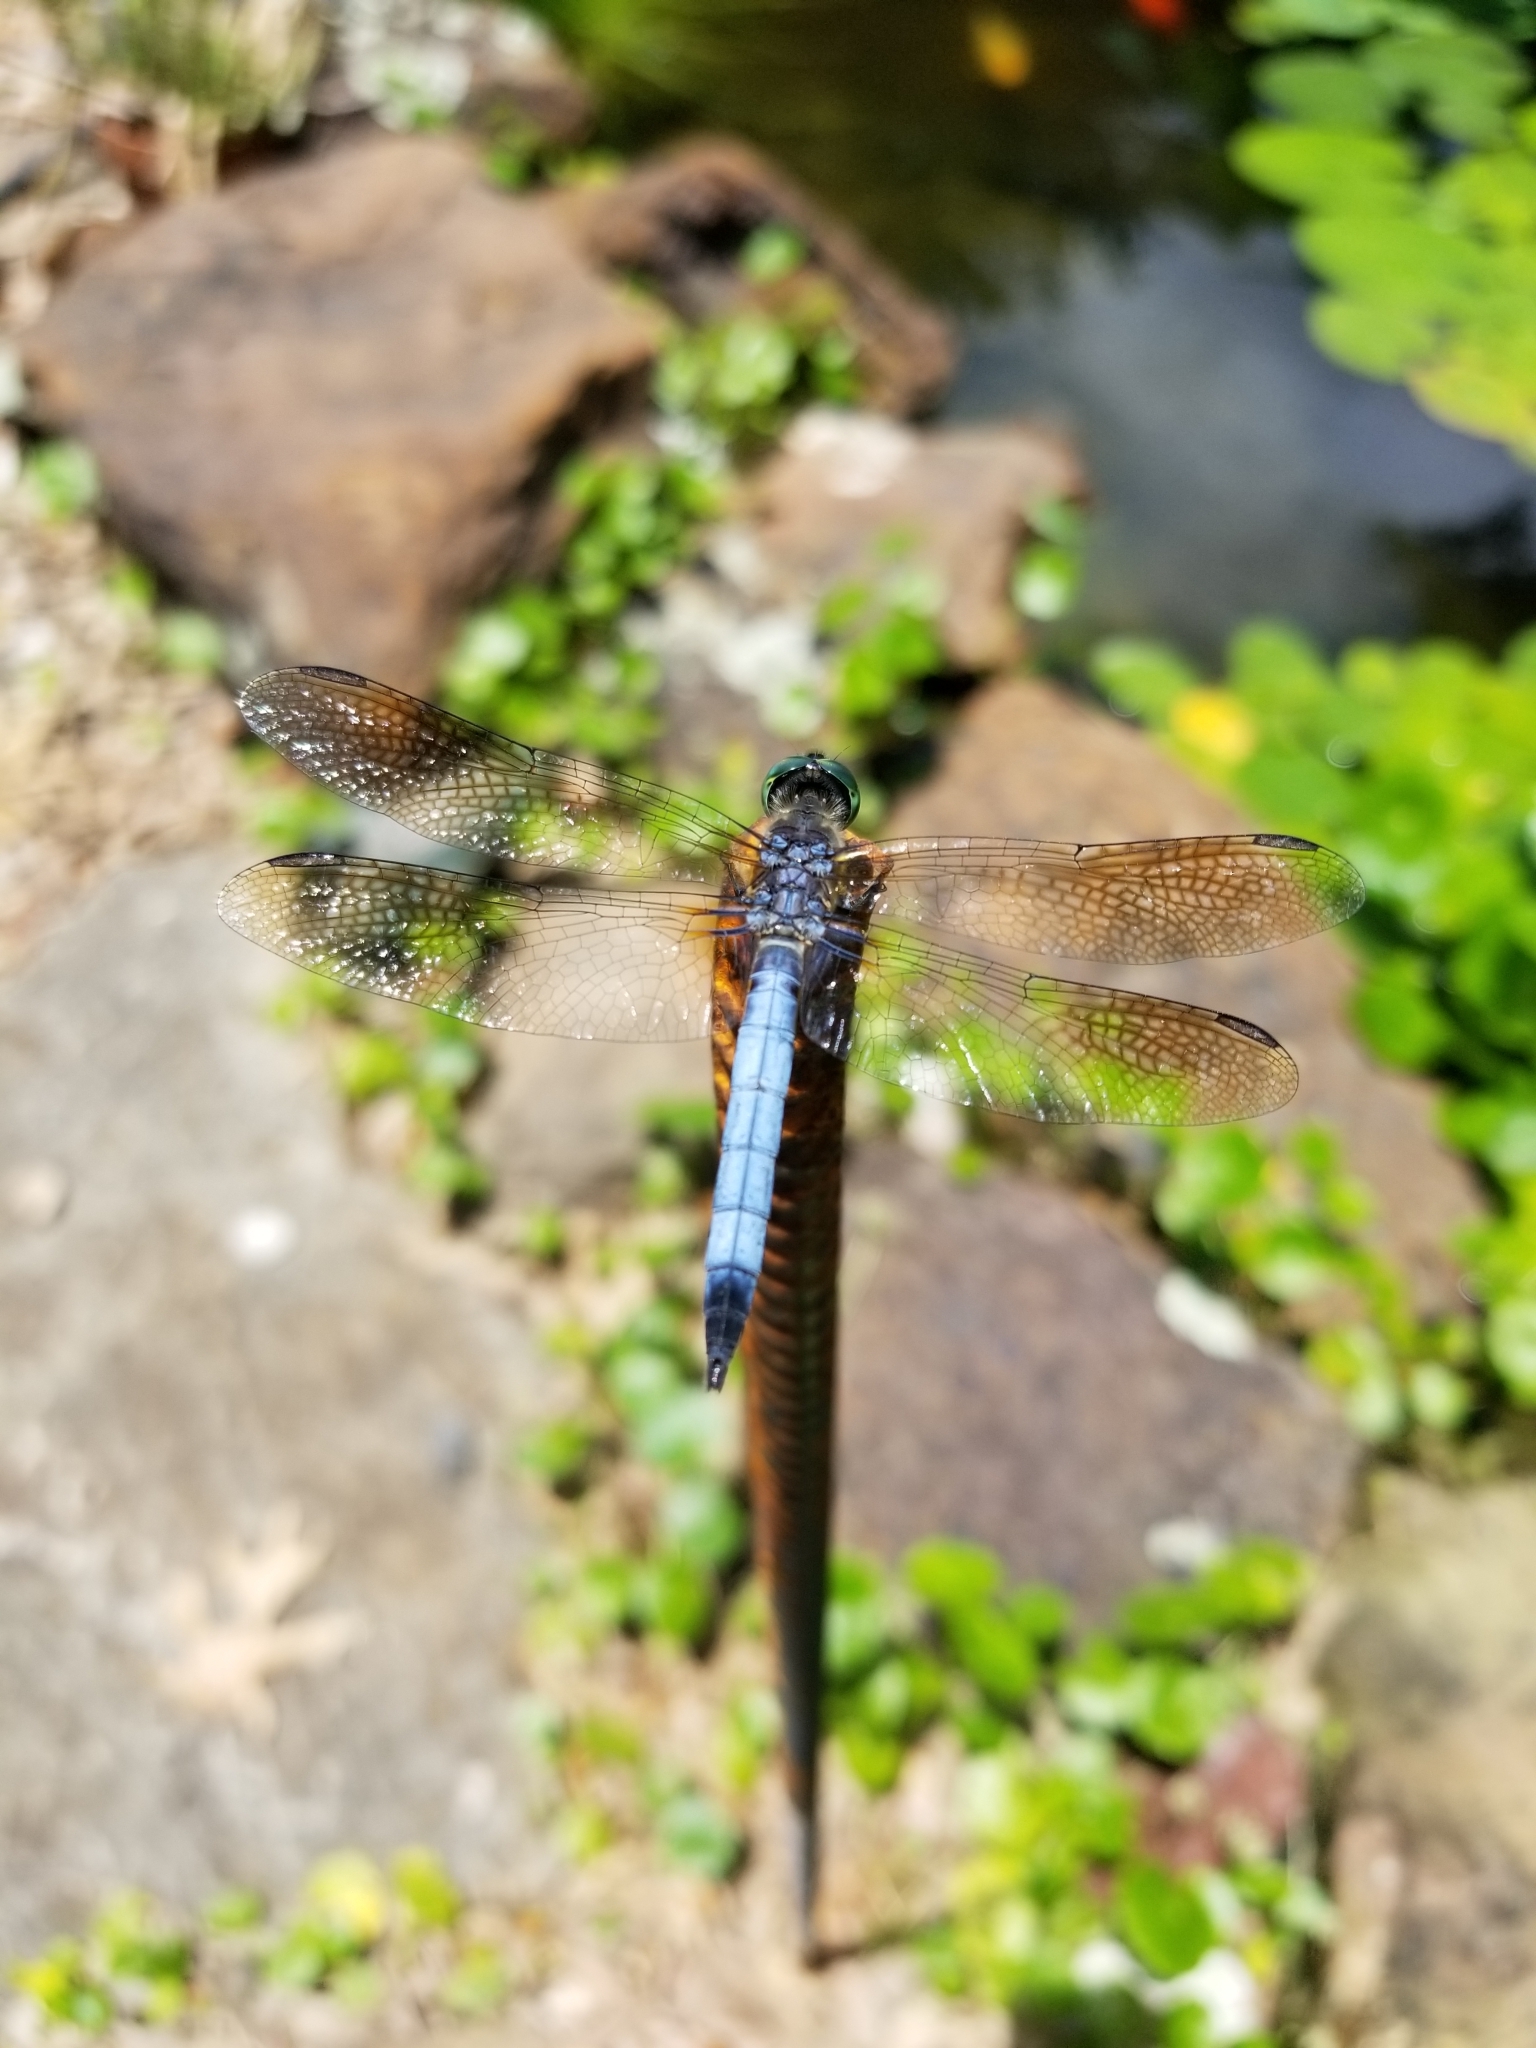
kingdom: Animalia
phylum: Arthropoda
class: Insecta
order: Odonata
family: Libellulidae
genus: Pachydiplax
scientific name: Pachydiplax longipennis
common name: Blue dasher
